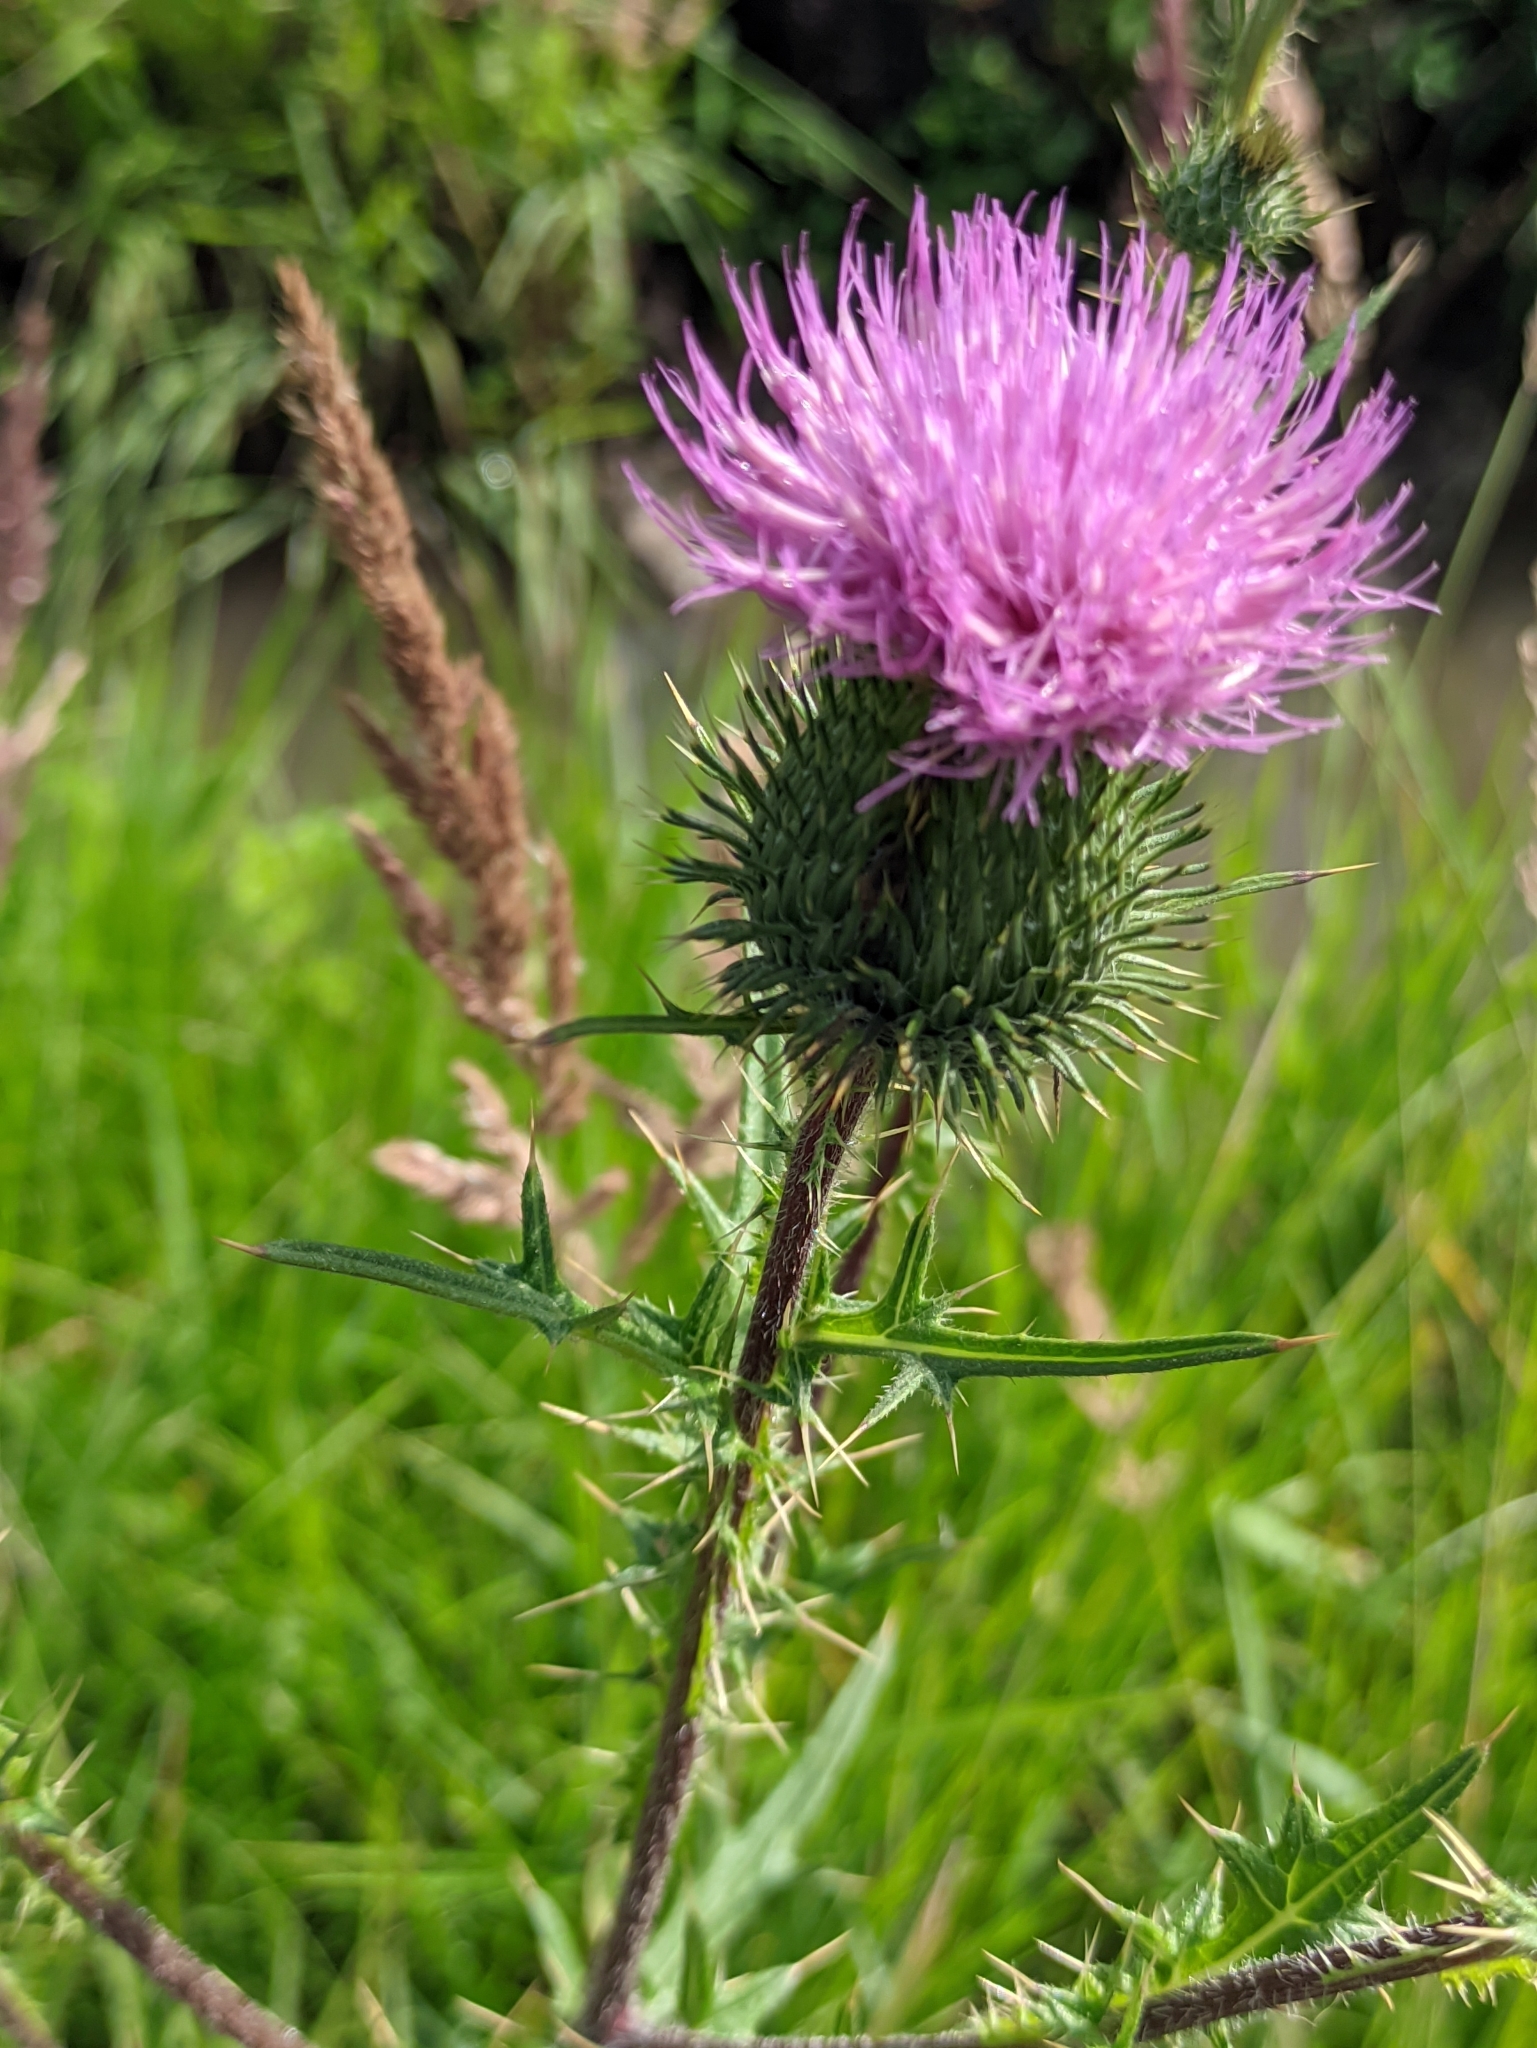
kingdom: Plantae
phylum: Tracheophyta
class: Magnoliopsida
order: Asterales
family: Asteraceae
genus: Cirsium
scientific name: Cirsium vulgare
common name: Bull thistle
